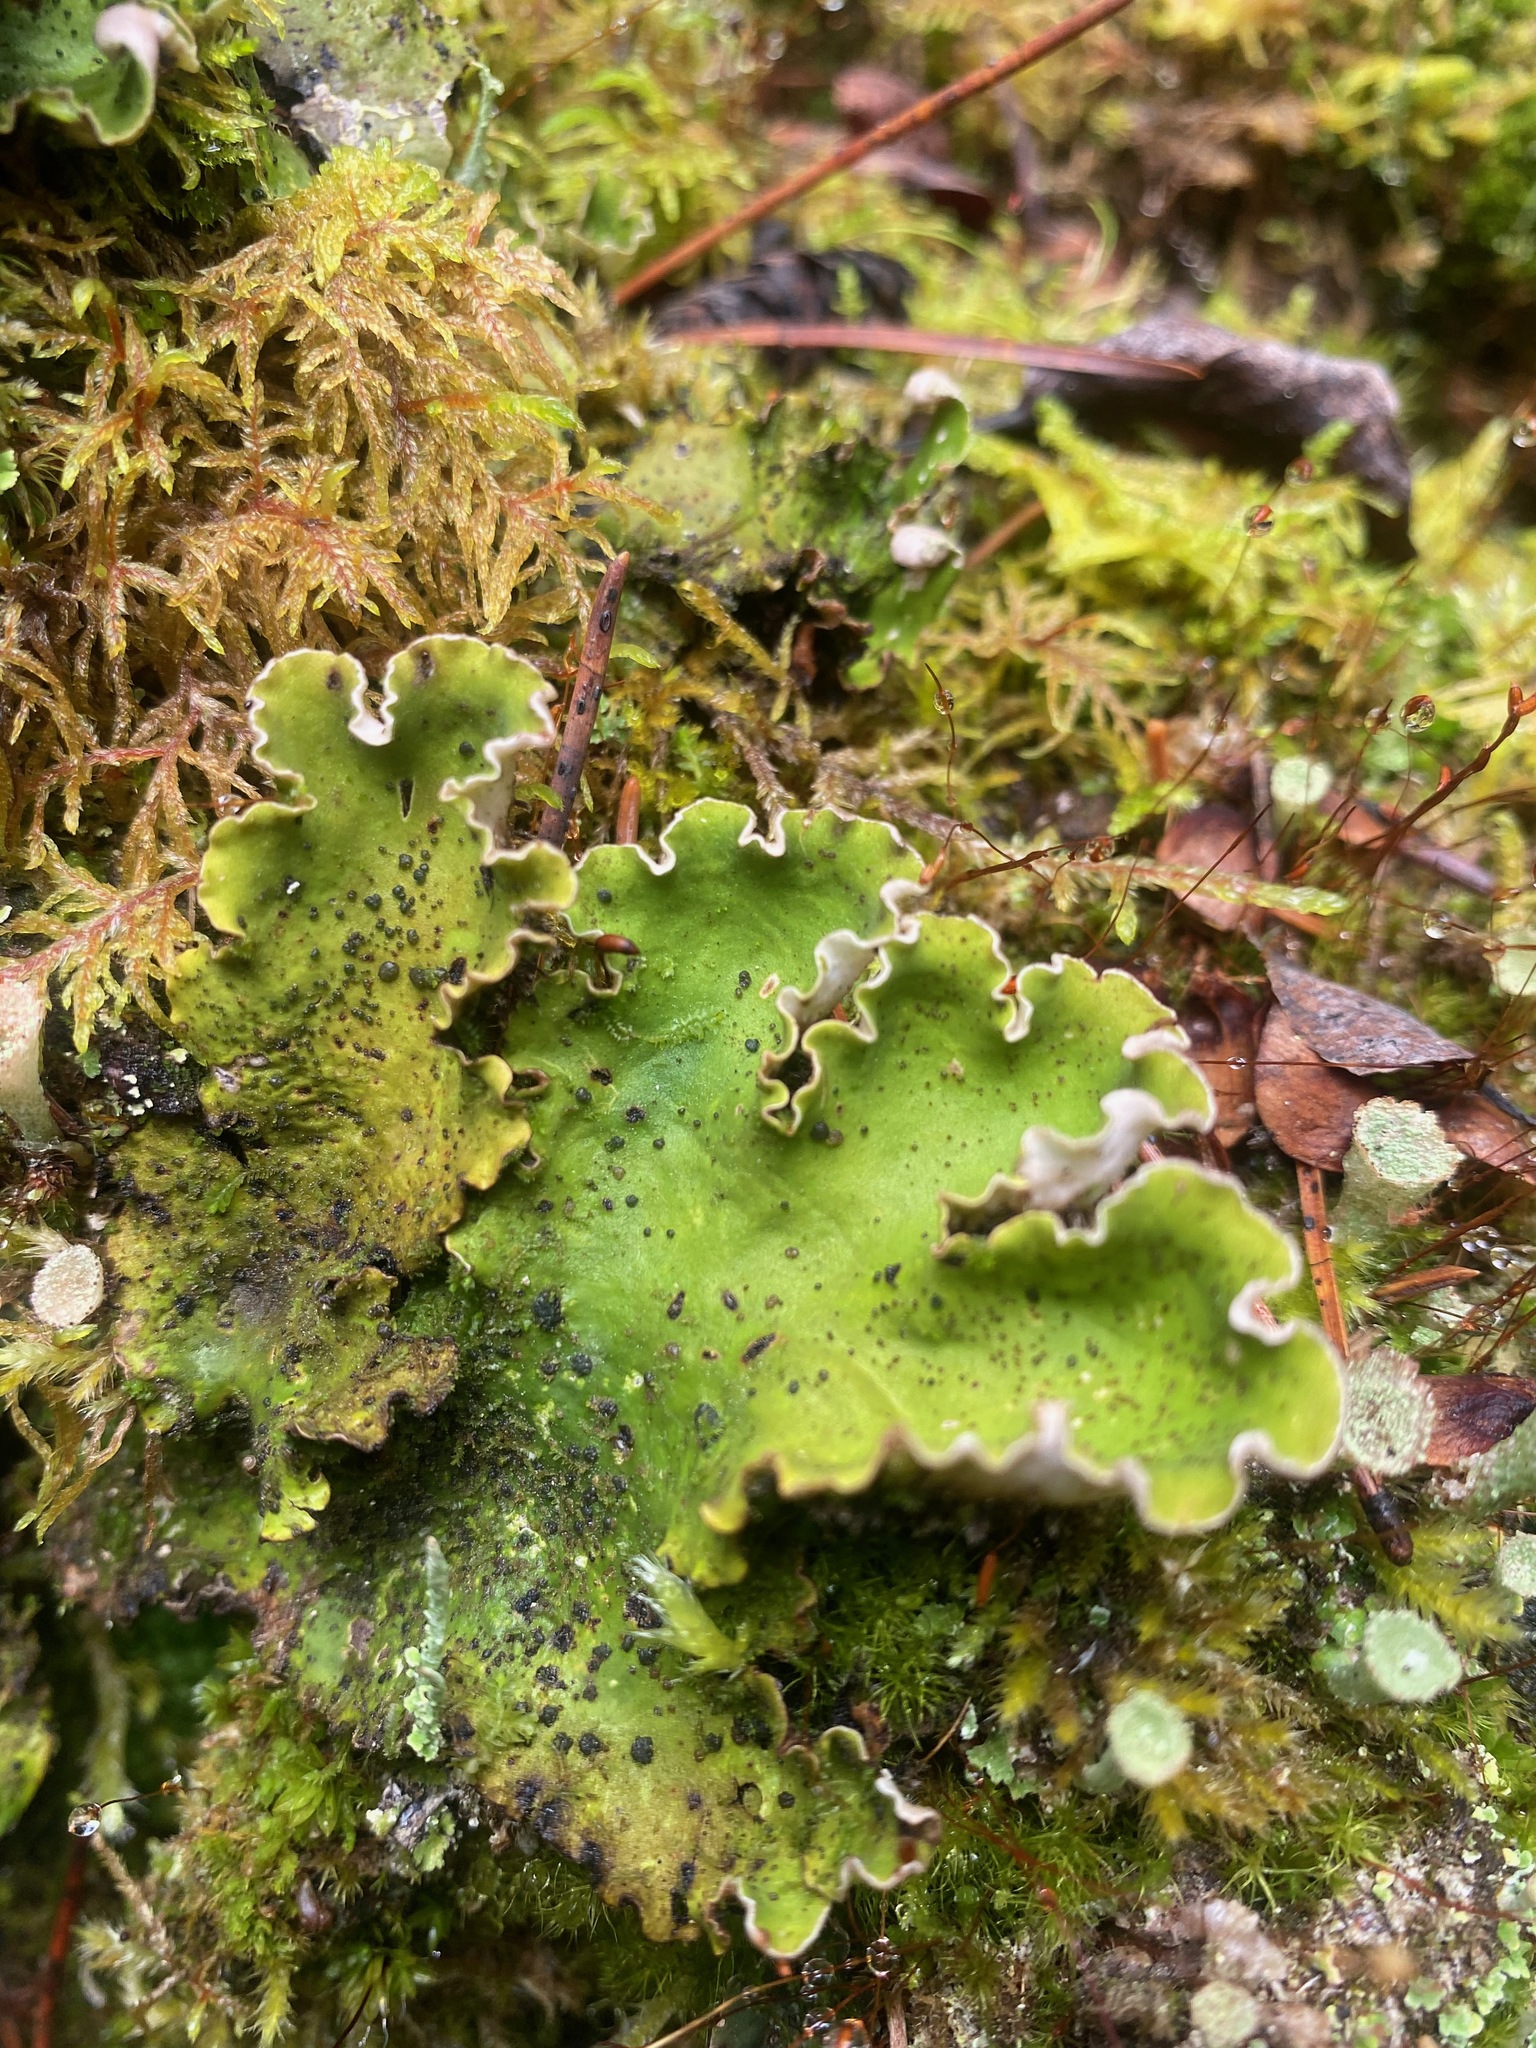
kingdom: Fungi
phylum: Ascomycota
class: Lecanoromycetes
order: Peltigerales
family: Peltigeraceae
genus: Peltigera
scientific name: Peltigera aphthosa
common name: Common freckle pelt lichen
